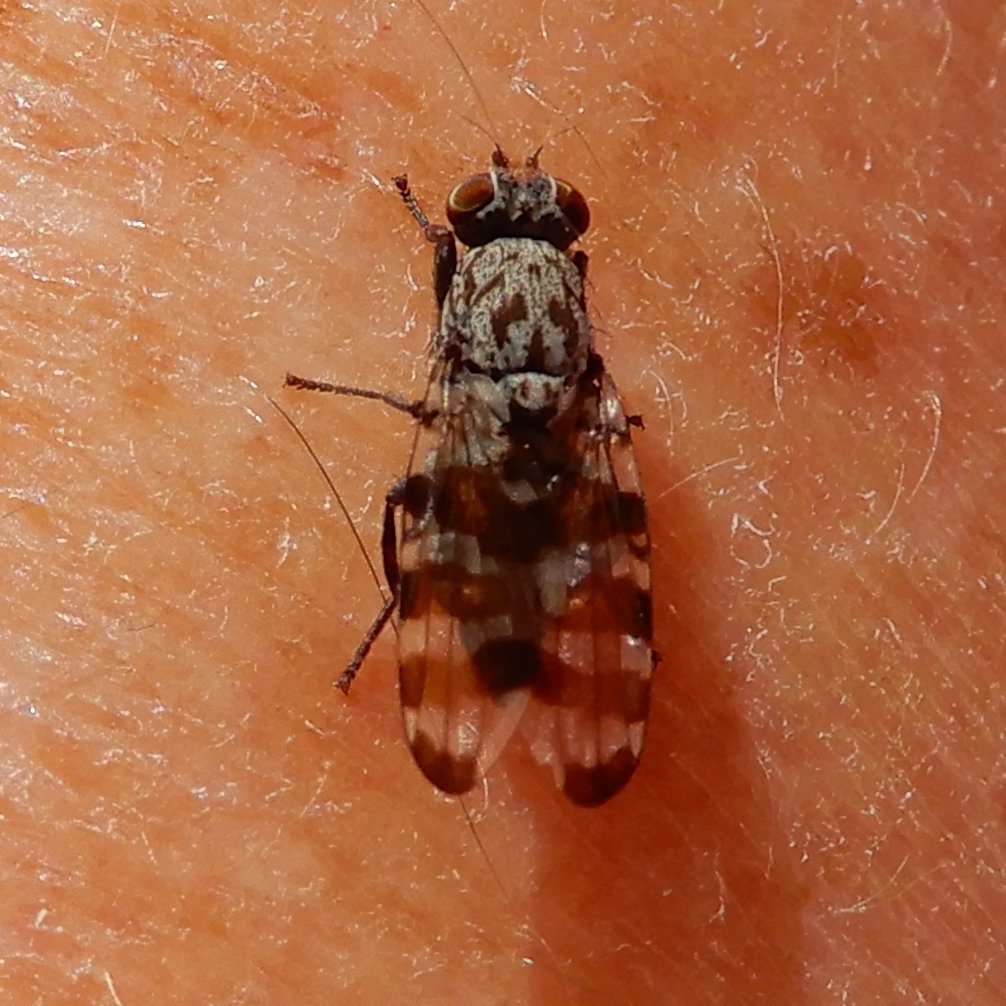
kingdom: Animalia
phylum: Arthropoda
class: Insecta
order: Diptera
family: Ulidiidae
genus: Pseudotephritis
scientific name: Pseudotephritis vau
